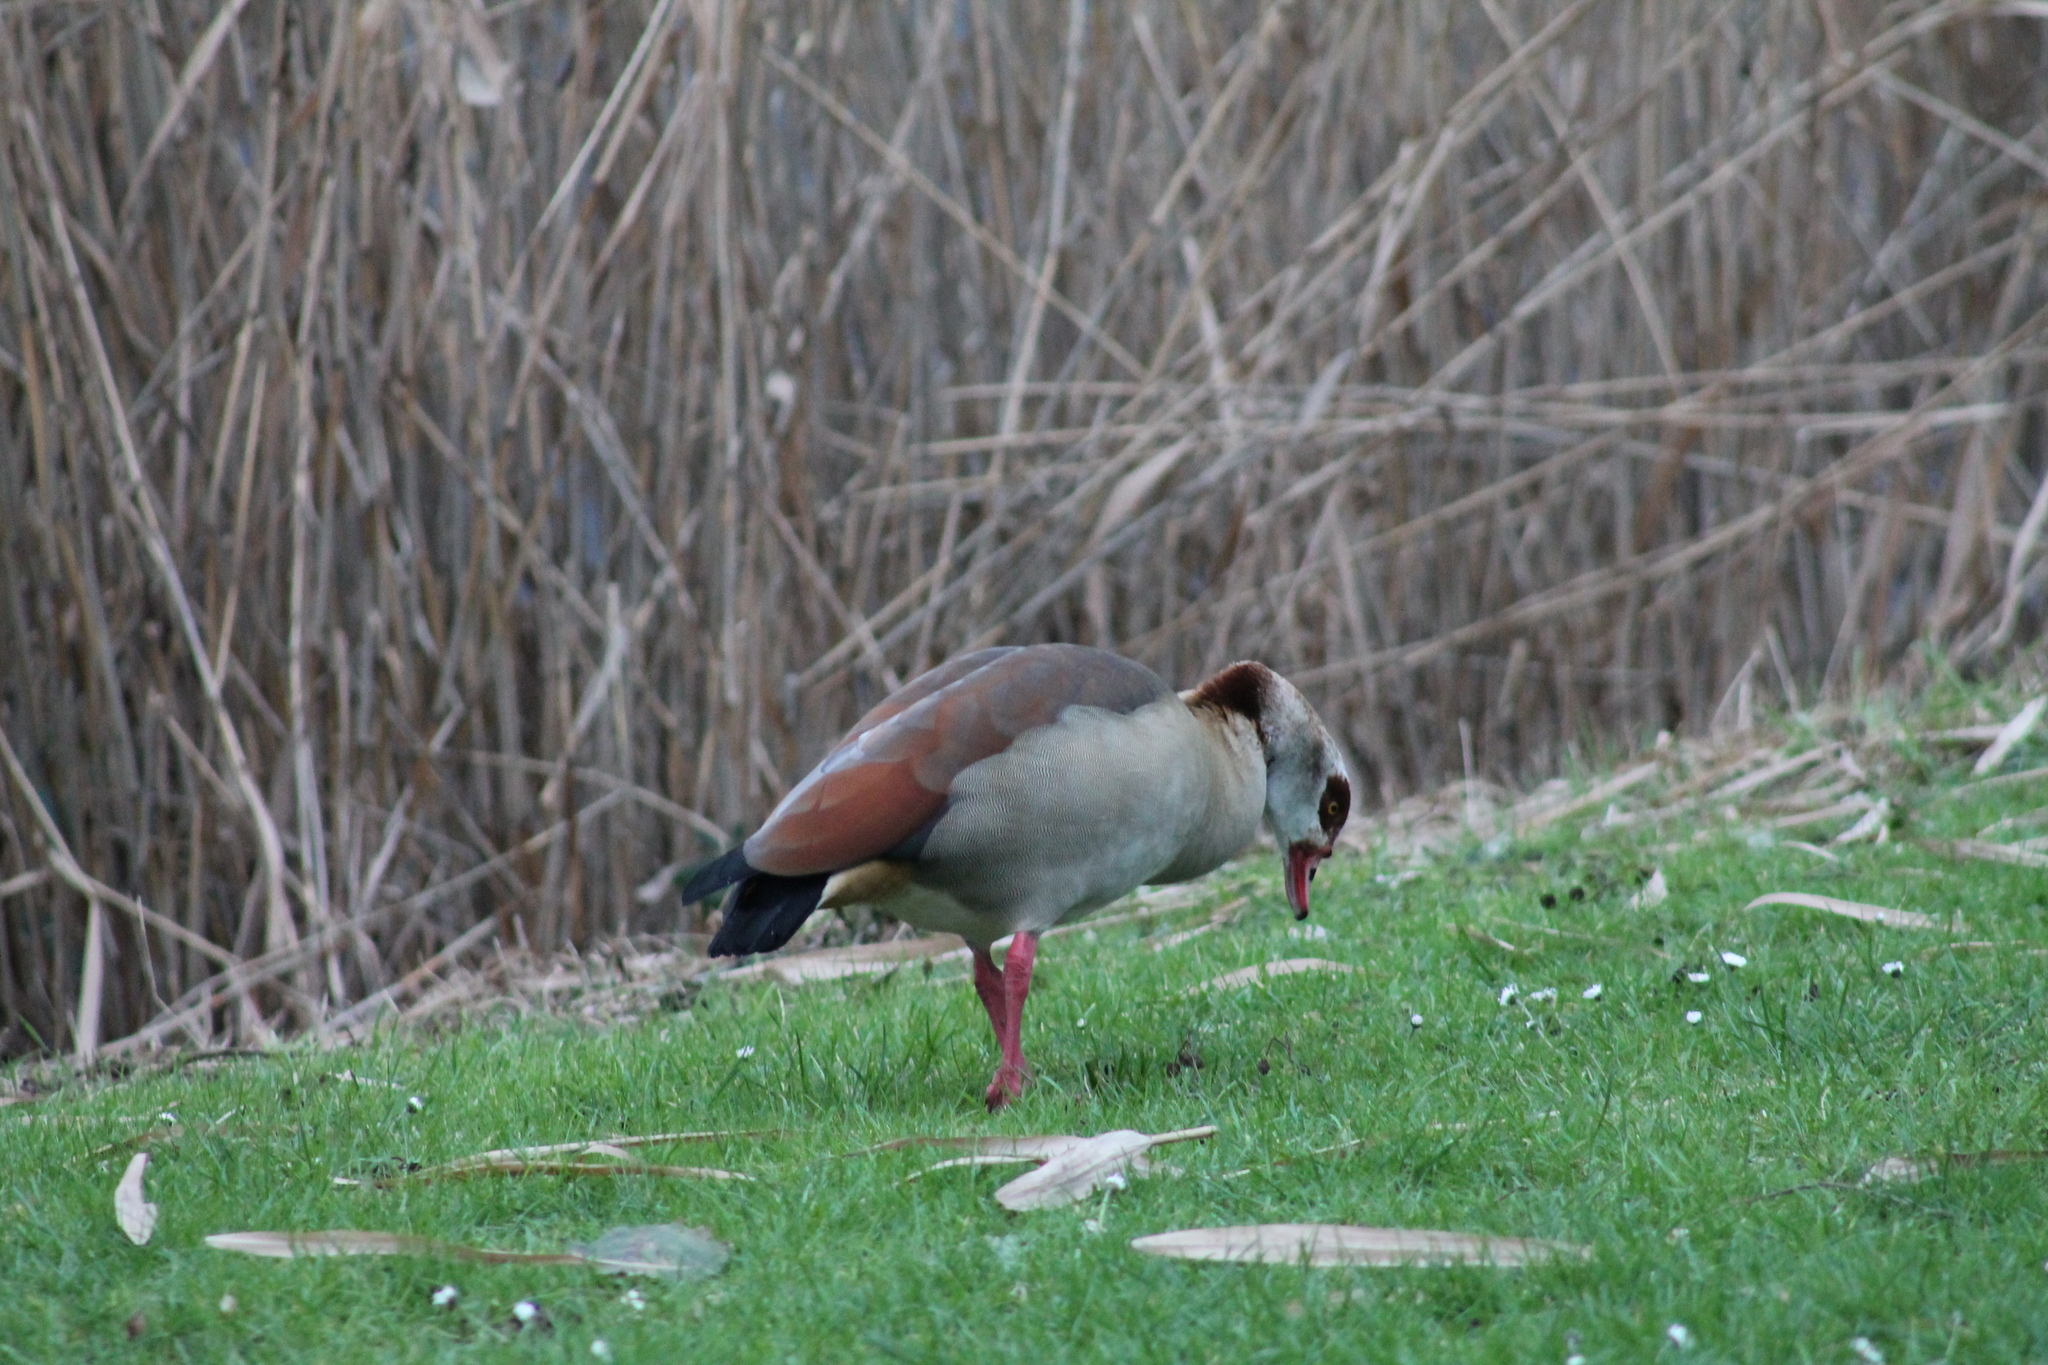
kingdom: Animalia
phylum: Chordata
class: Aves
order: Anseriformes
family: Anatidae
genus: Alopochen
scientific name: Alopochen aegyptiaca
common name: Egyptian goose
